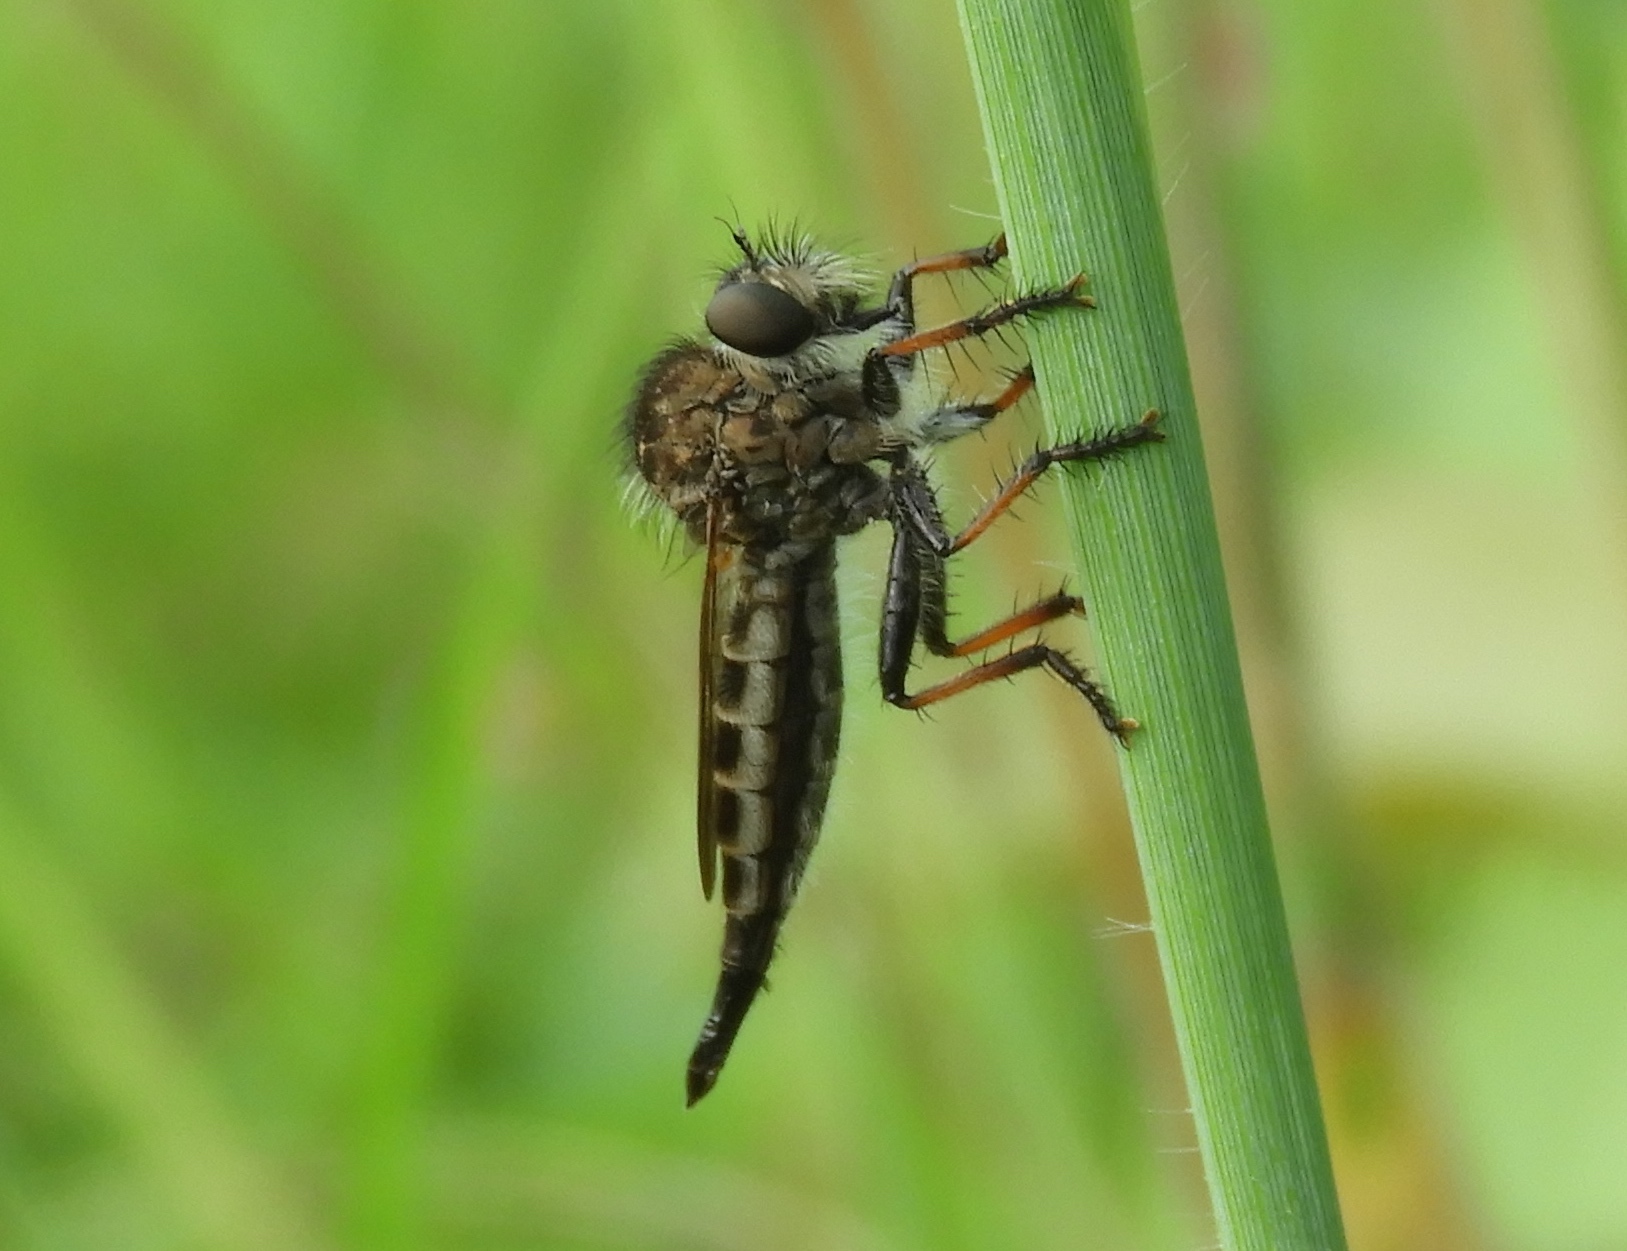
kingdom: Animalia
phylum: Arthropoda
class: Insecta
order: Diptera
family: Asilidae
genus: Efferia
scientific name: Efferia
